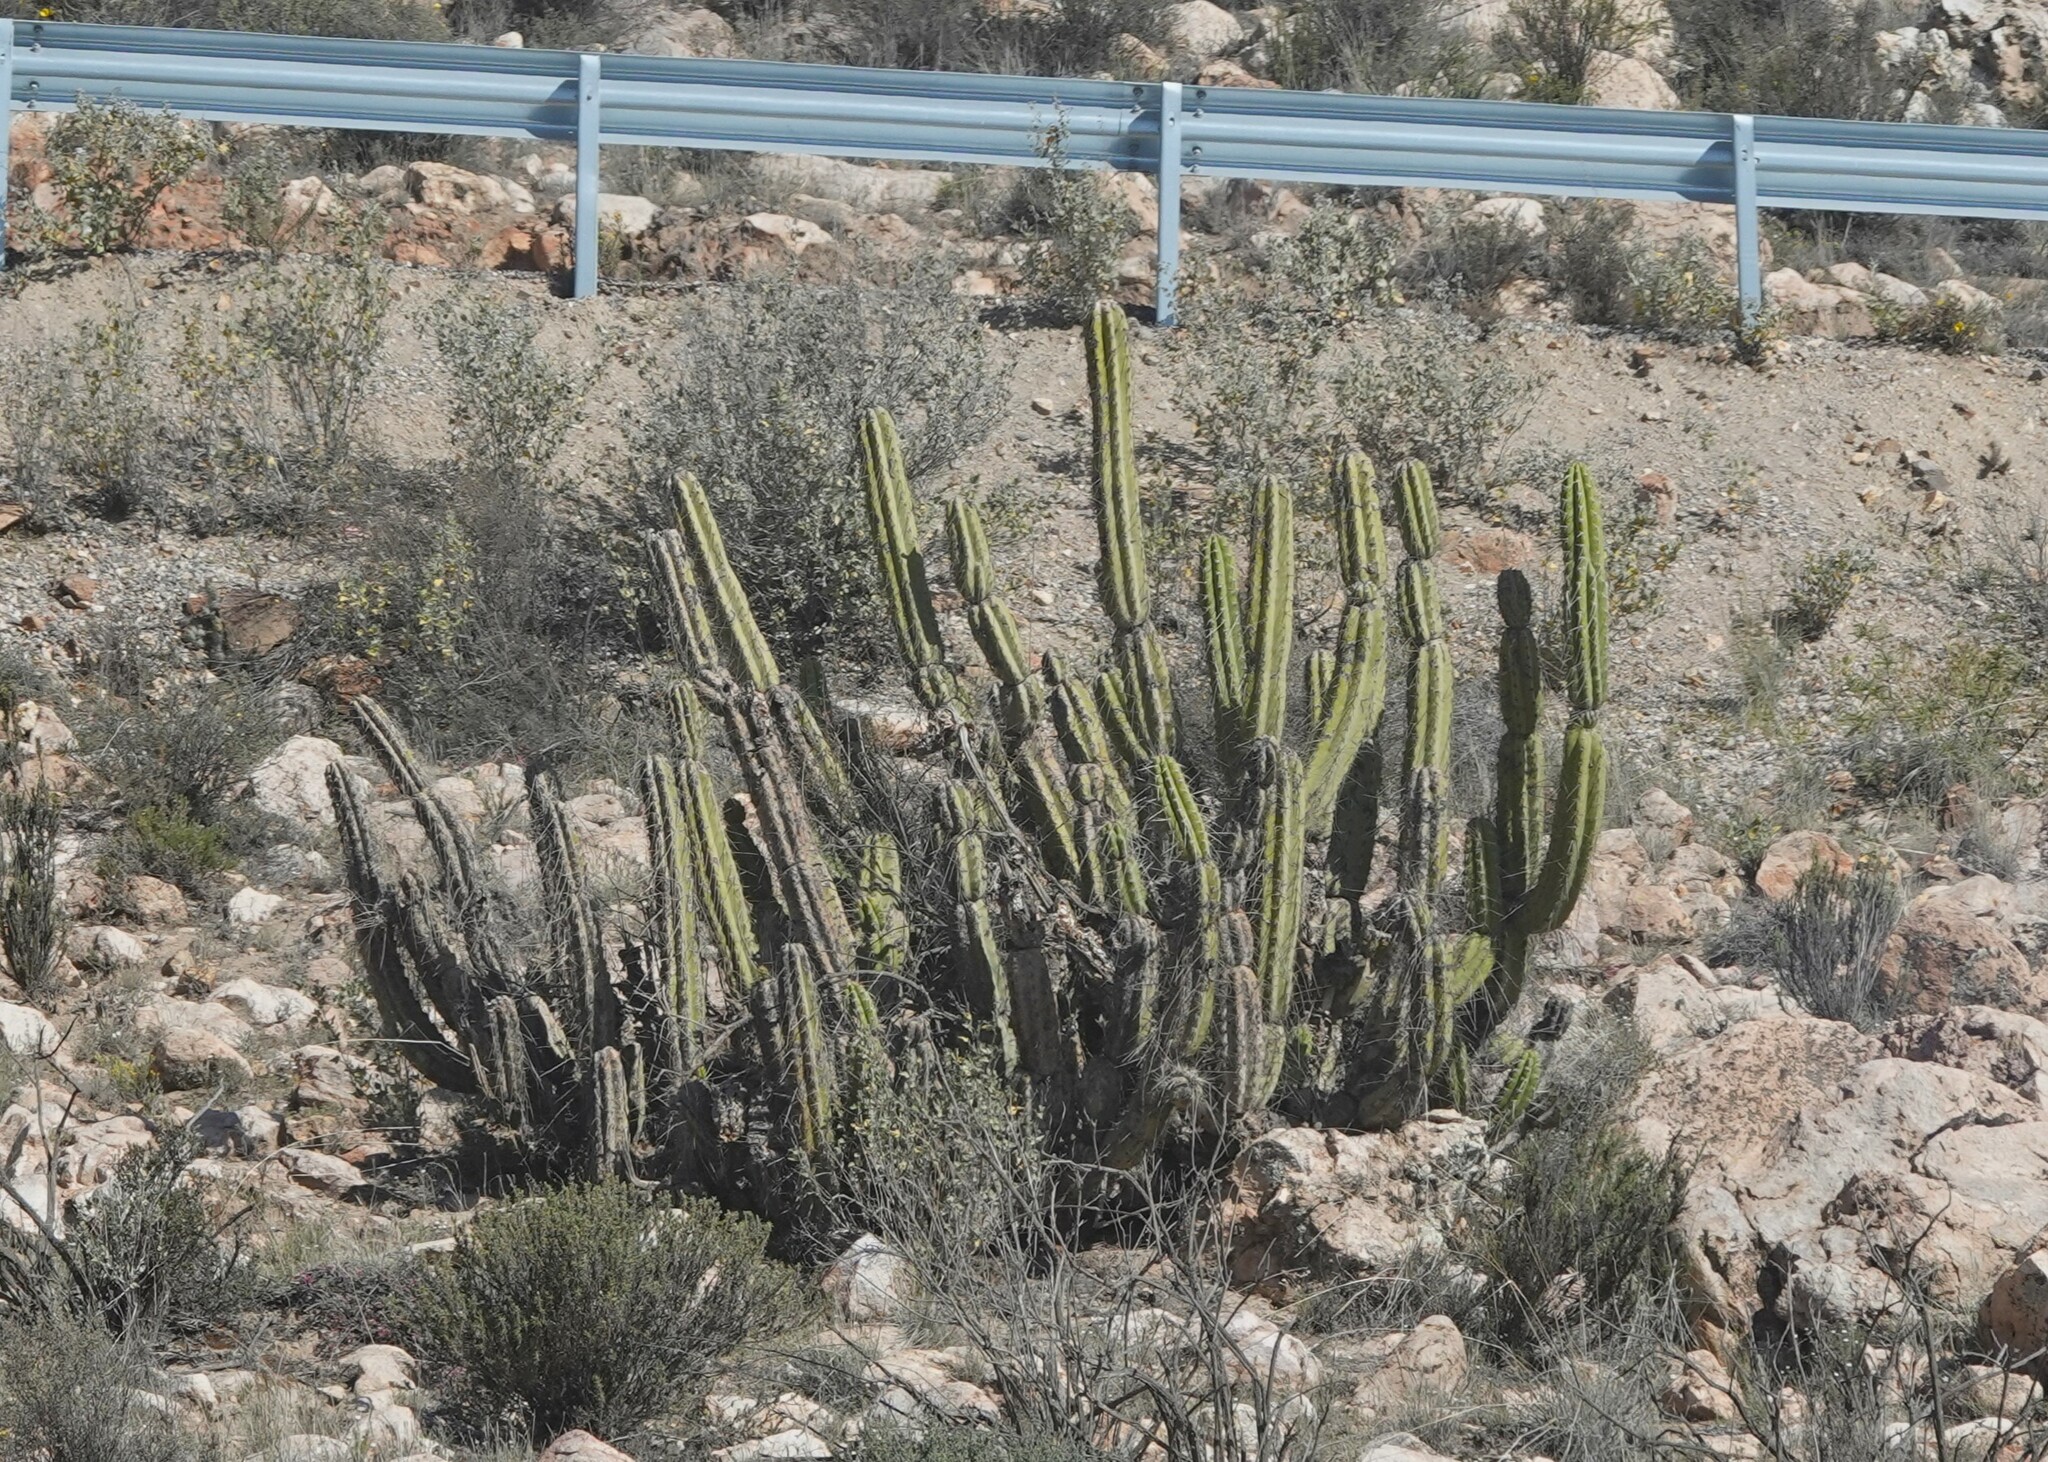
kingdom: Plantae
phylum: Tracheophyta
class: Magnoliopsida
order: Caryophyllales
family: Cactaceae
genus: Corryocactus
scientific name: Corryocactus brevistylus
